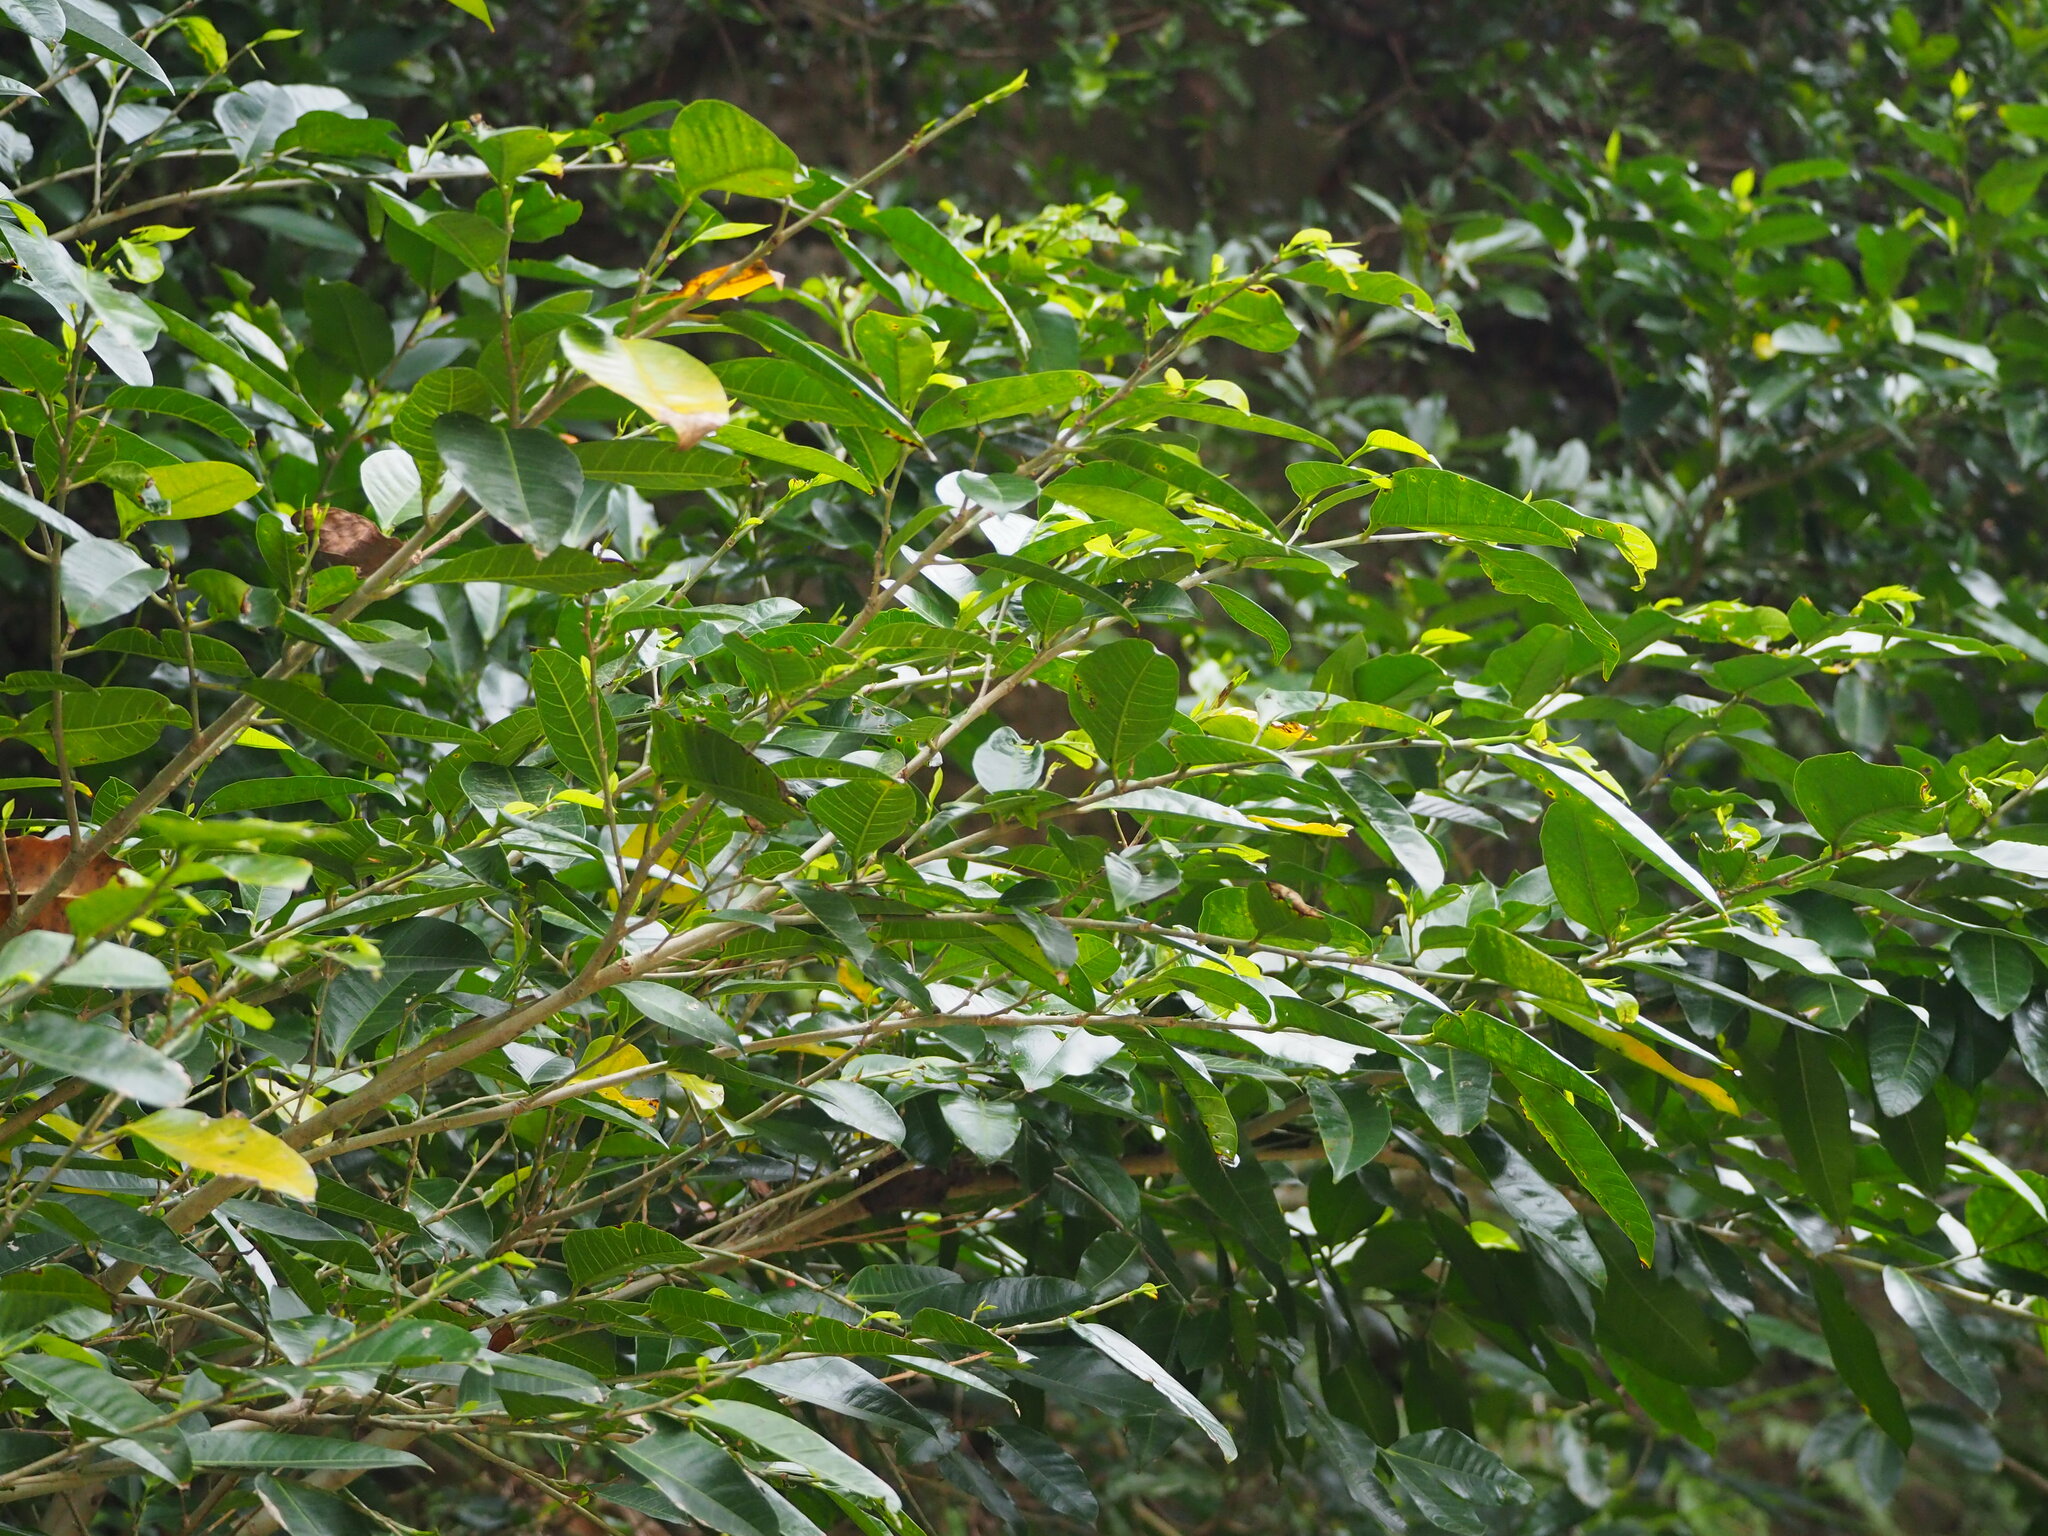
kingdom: Plantae
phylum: Tracheophyta
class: Magnoliopsida
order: Rosales
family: Moraceae
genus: Ficus
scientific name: Ficus virgata
